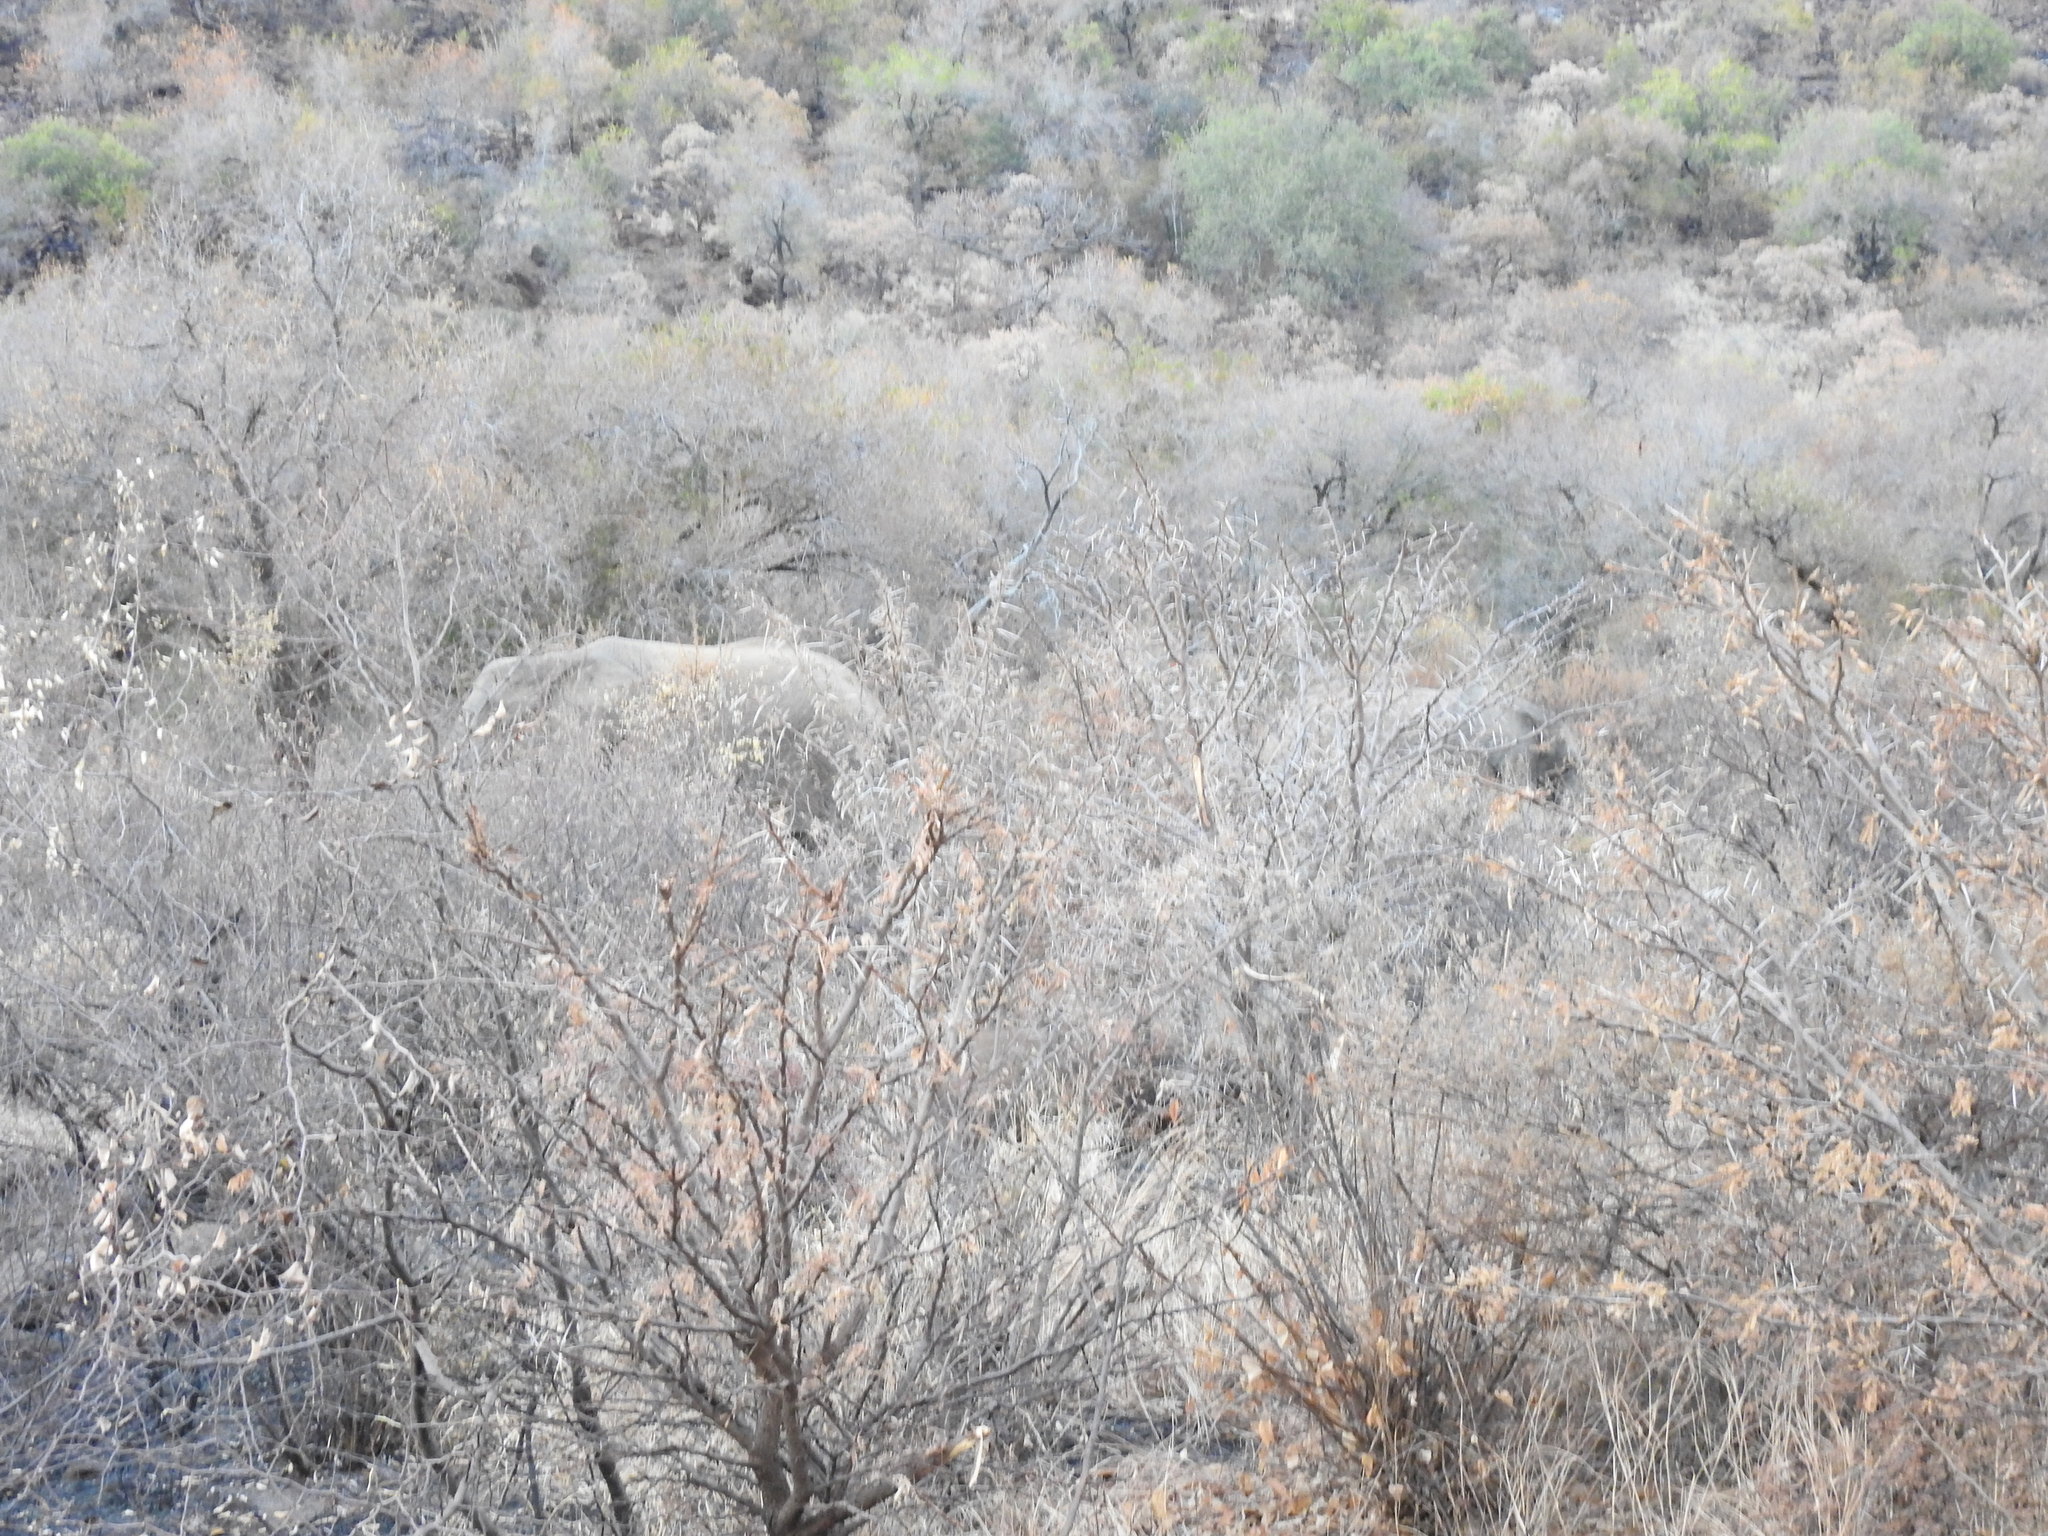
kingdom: Animalia
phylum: Chordata
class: Mammalia
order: Proboscidea
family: Elephantidae
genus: Loxodonta
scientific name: Loxodonta africana
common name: African elephant
